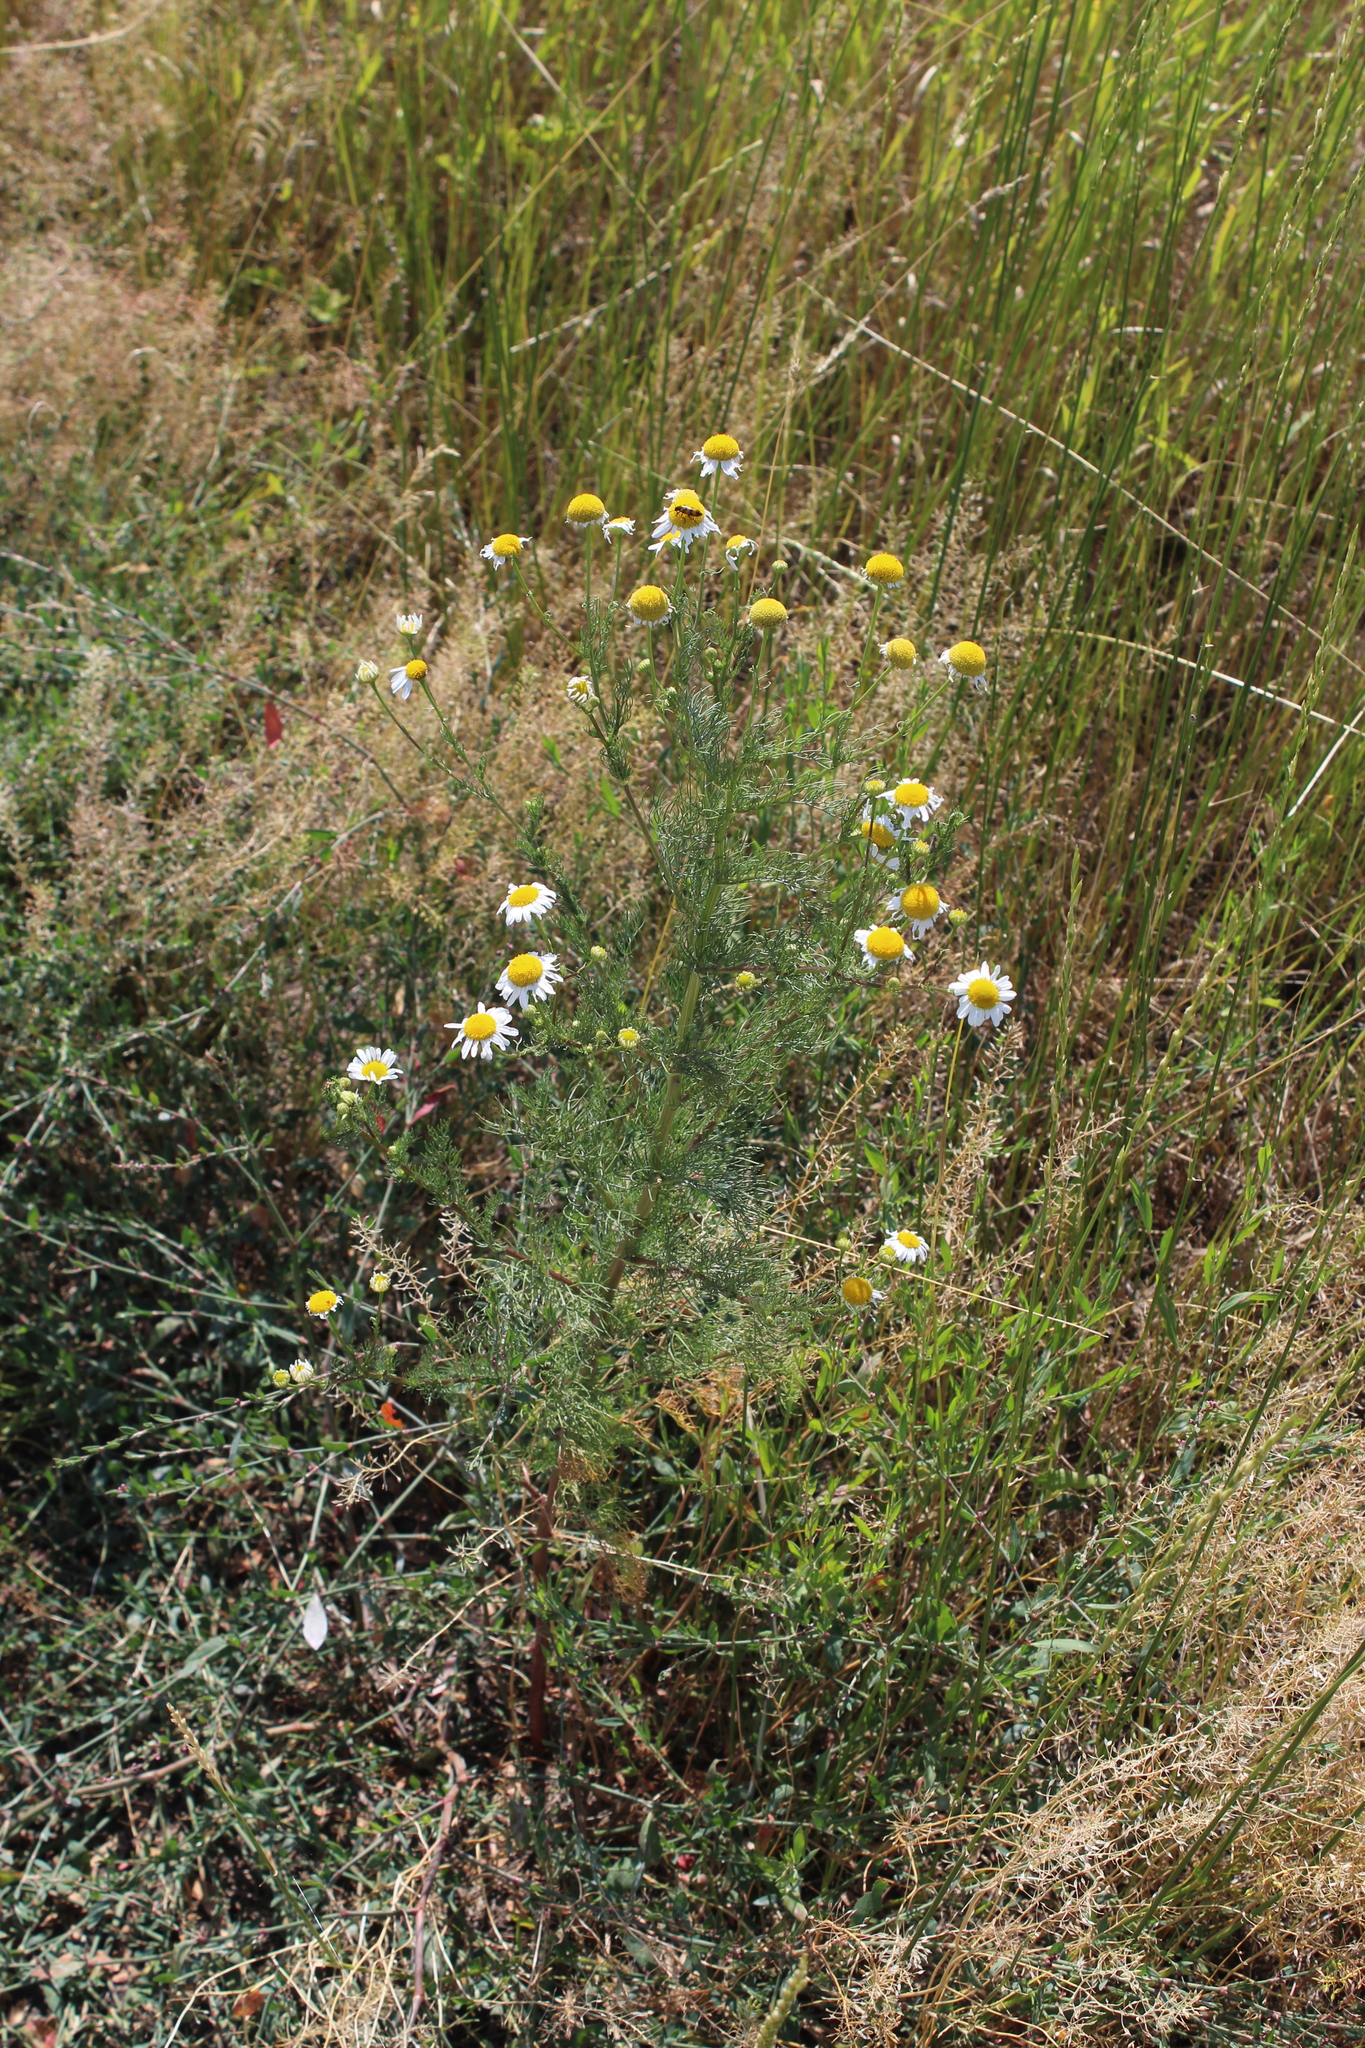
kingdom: Plantae
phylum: Tracheophyta
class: Magnoliopsida
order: Asterales
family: Asteraceae
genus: Tripleurospermum
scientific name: Tripleurospermum inodorum
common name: Scentless mayweed
